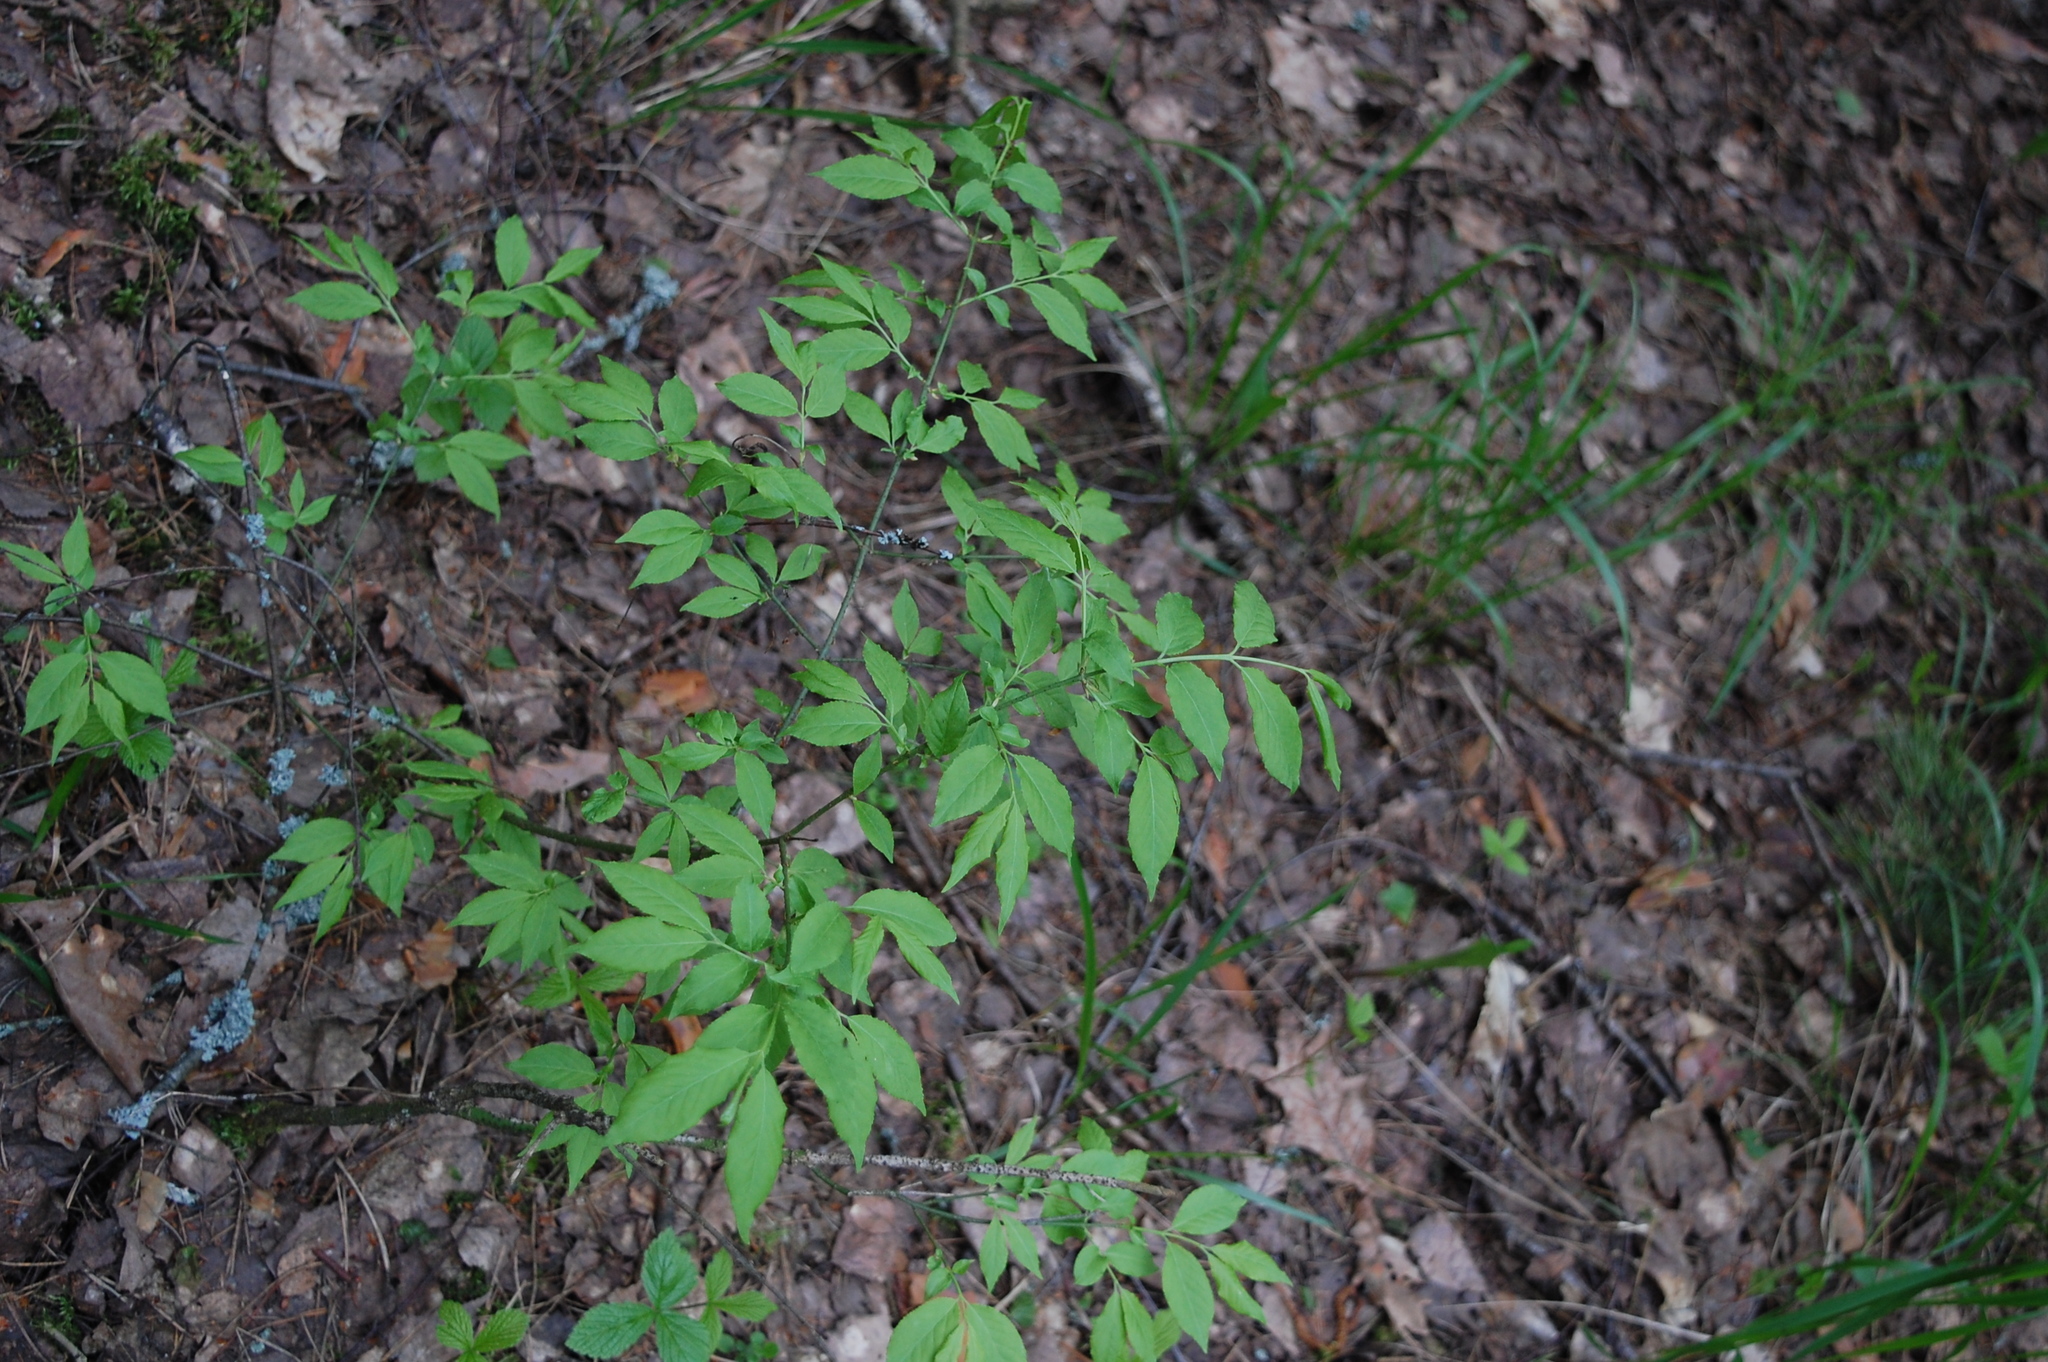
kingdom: Plantae
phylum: Tracheophyta
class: Magnoliopsida
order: Celastrales
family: Celastraceae
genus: Euonymus
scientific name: Euonymus verrucosus
